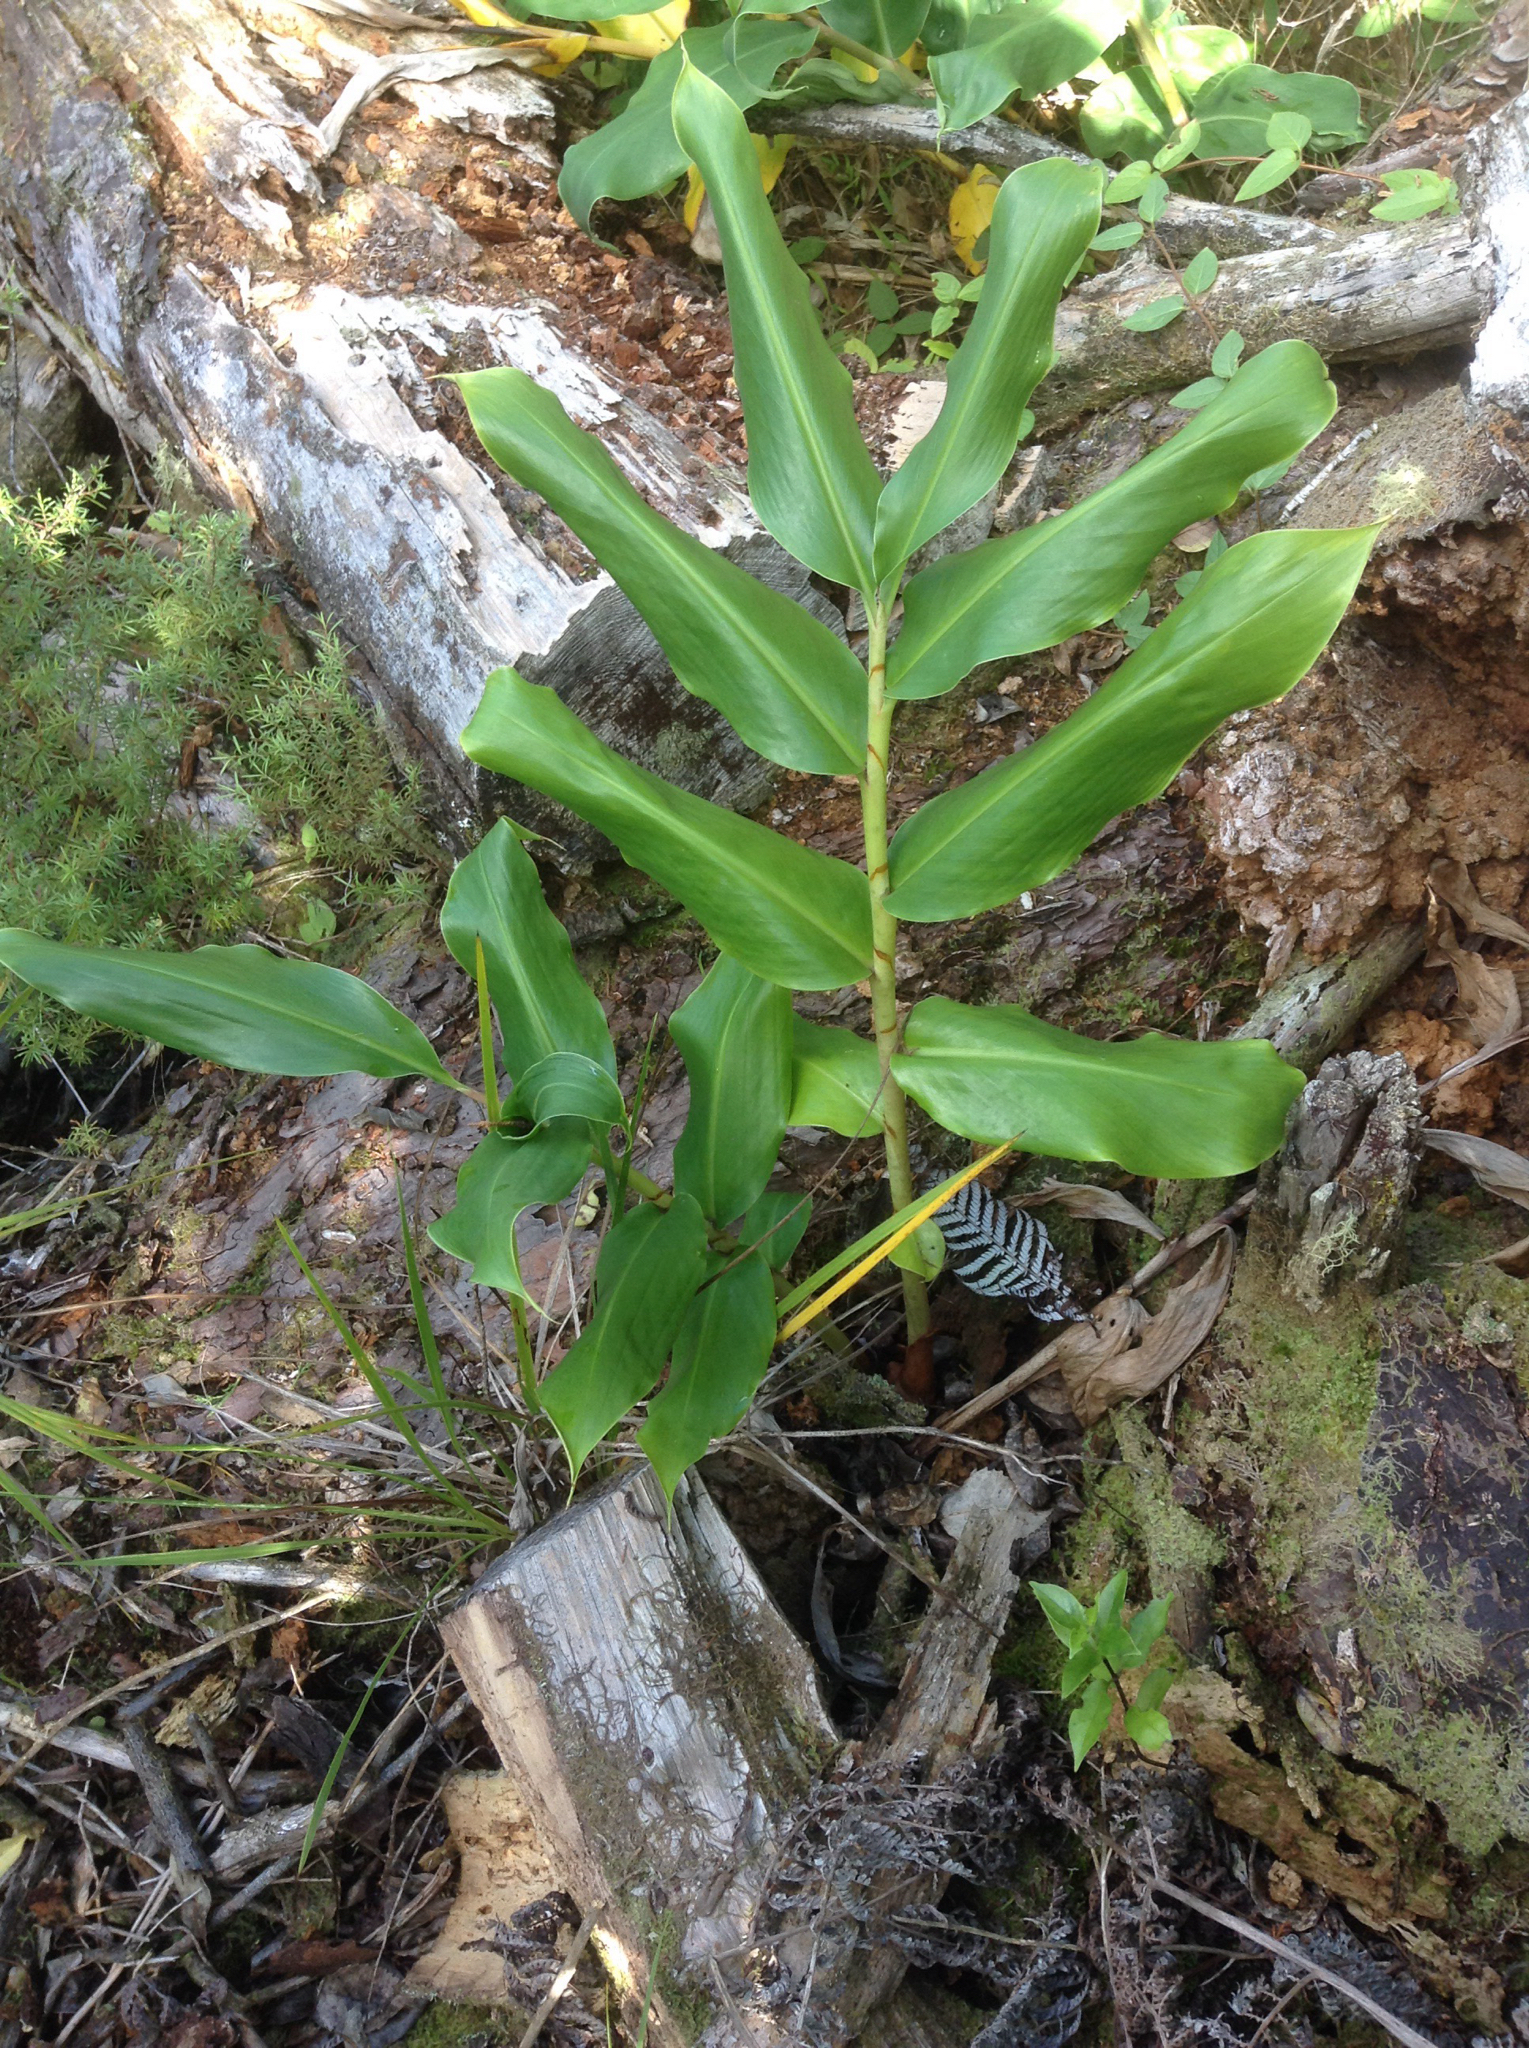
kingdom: Plantae
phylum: Tracheophyta
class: Liliopsida
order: Zingiberales
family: Zingiberaceae
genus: Hedychium
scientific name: Hedychium gardnerianum
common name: Himalayan ginger
